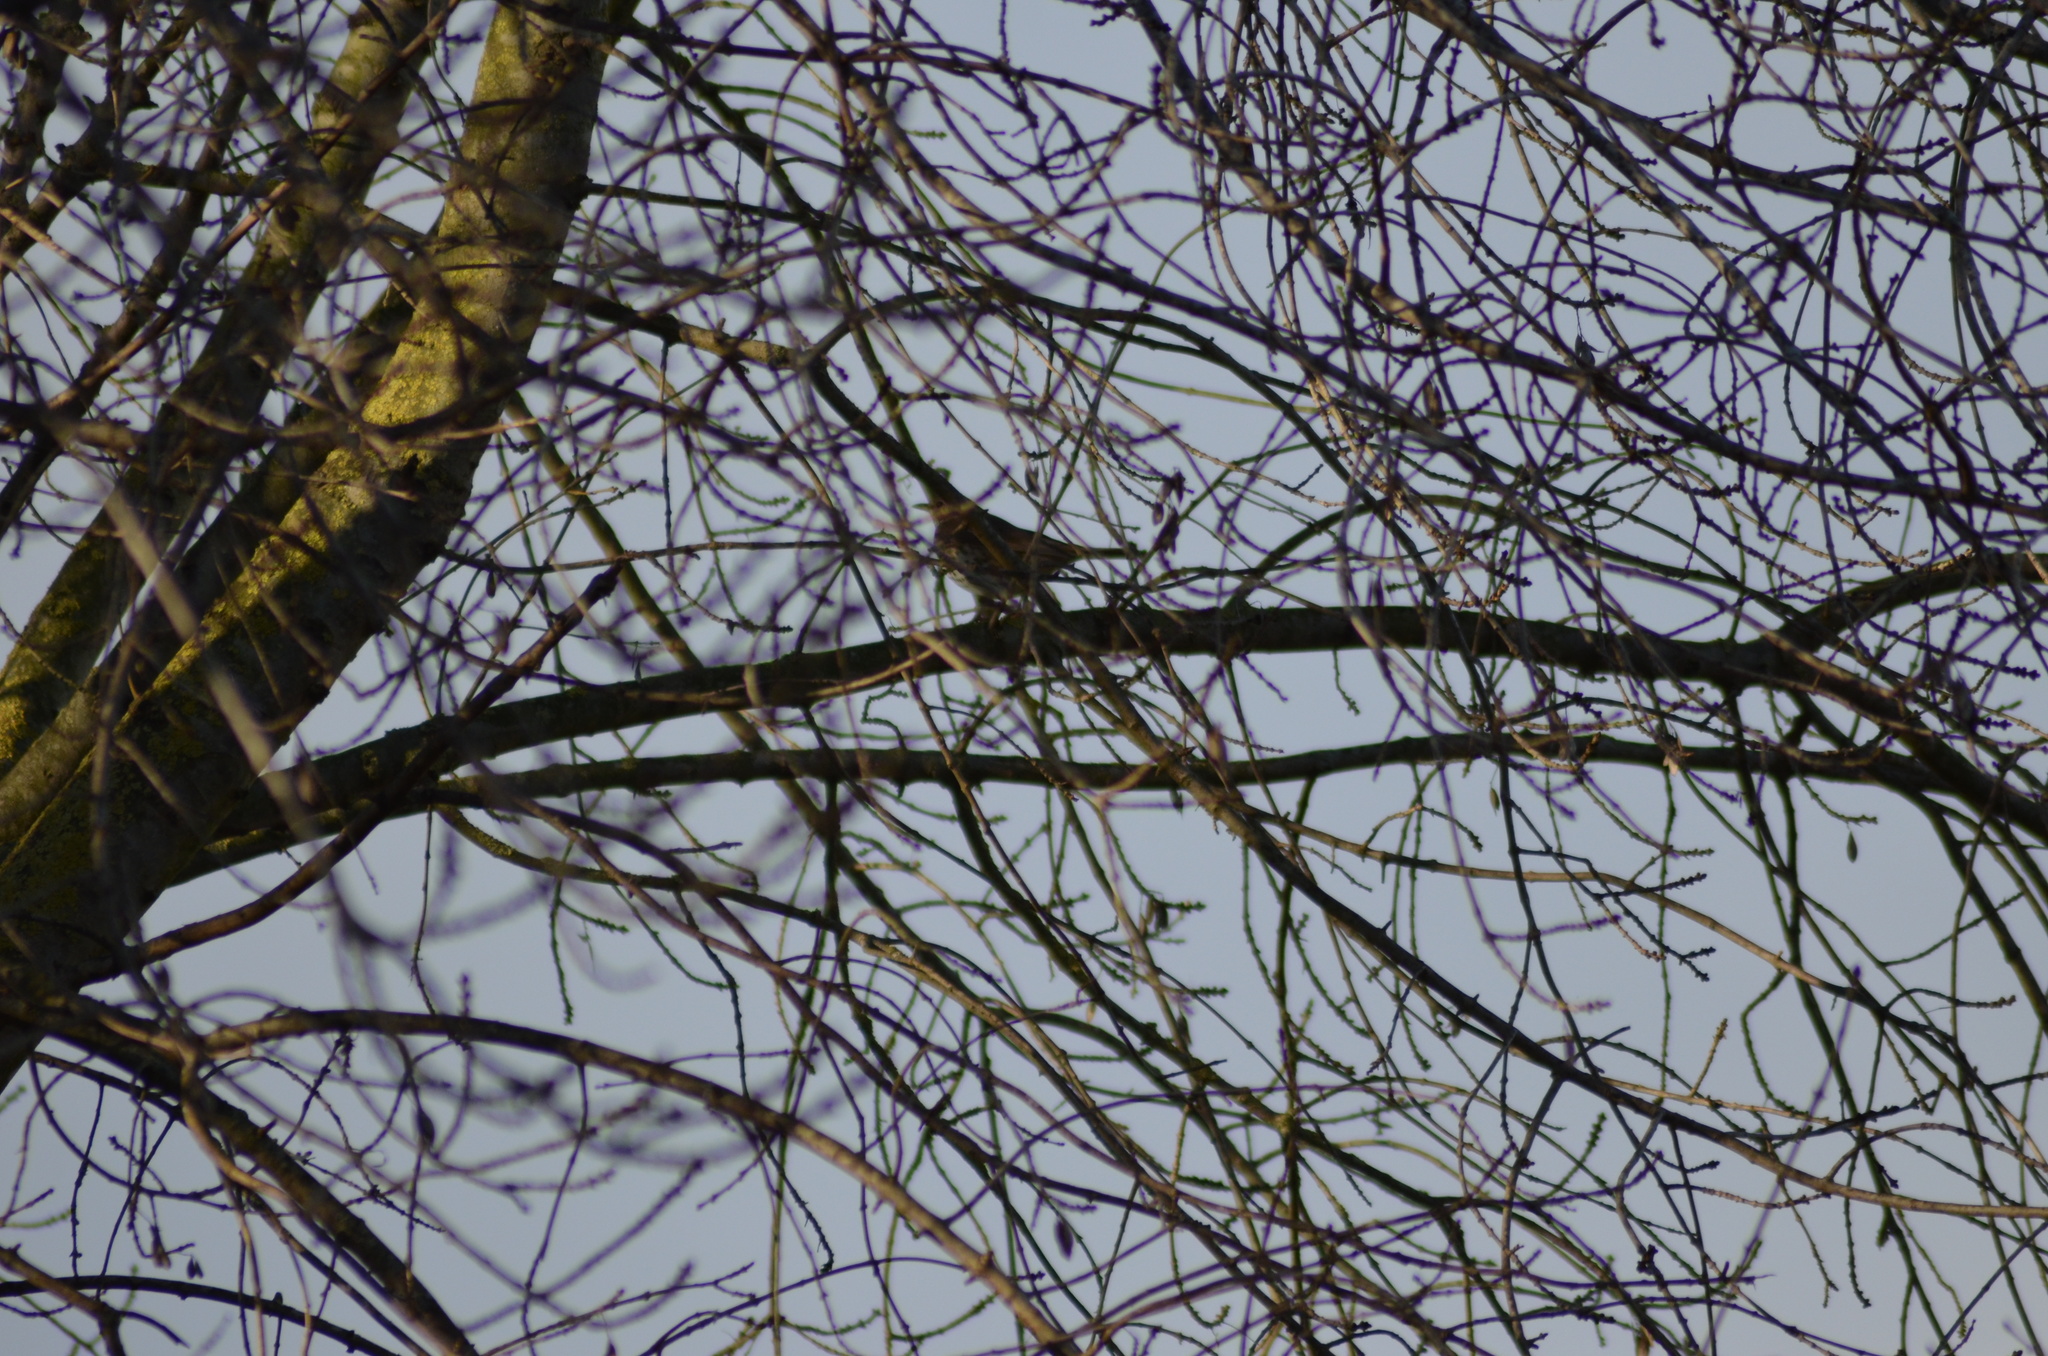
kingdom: Animalia
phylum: Chordata
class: Aves
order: Passeriformes
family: Turdidae
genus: Turdus
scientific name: Turdus philomelos
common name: Song thrush
